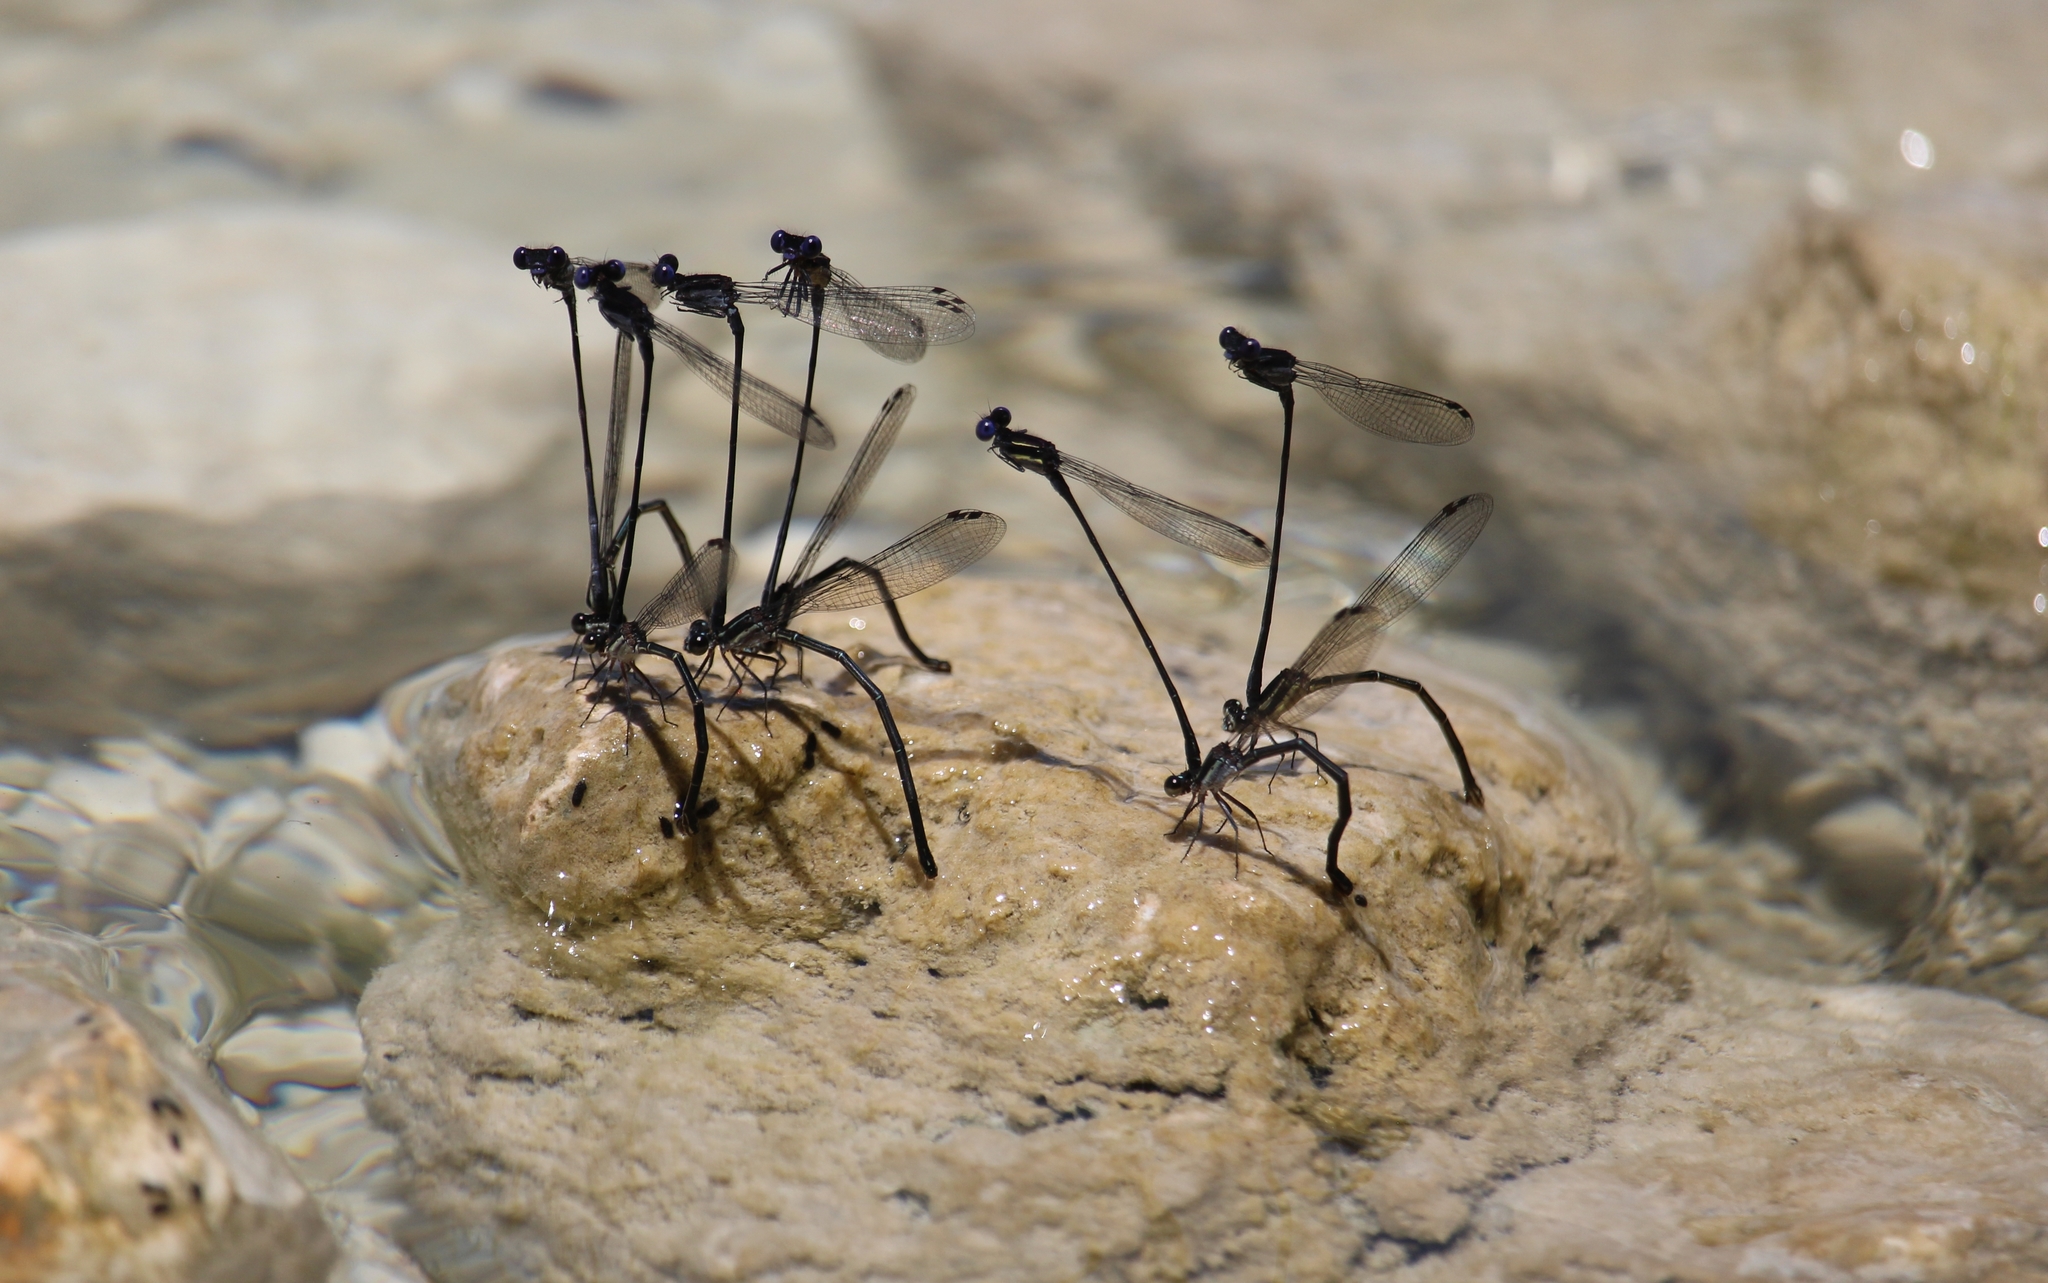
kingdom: Animalia
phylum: Arthropoda
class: Insecta
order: Odonata
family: Coenagrionidae
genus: Argia
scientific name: Argia translata
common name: Dusky dancer
